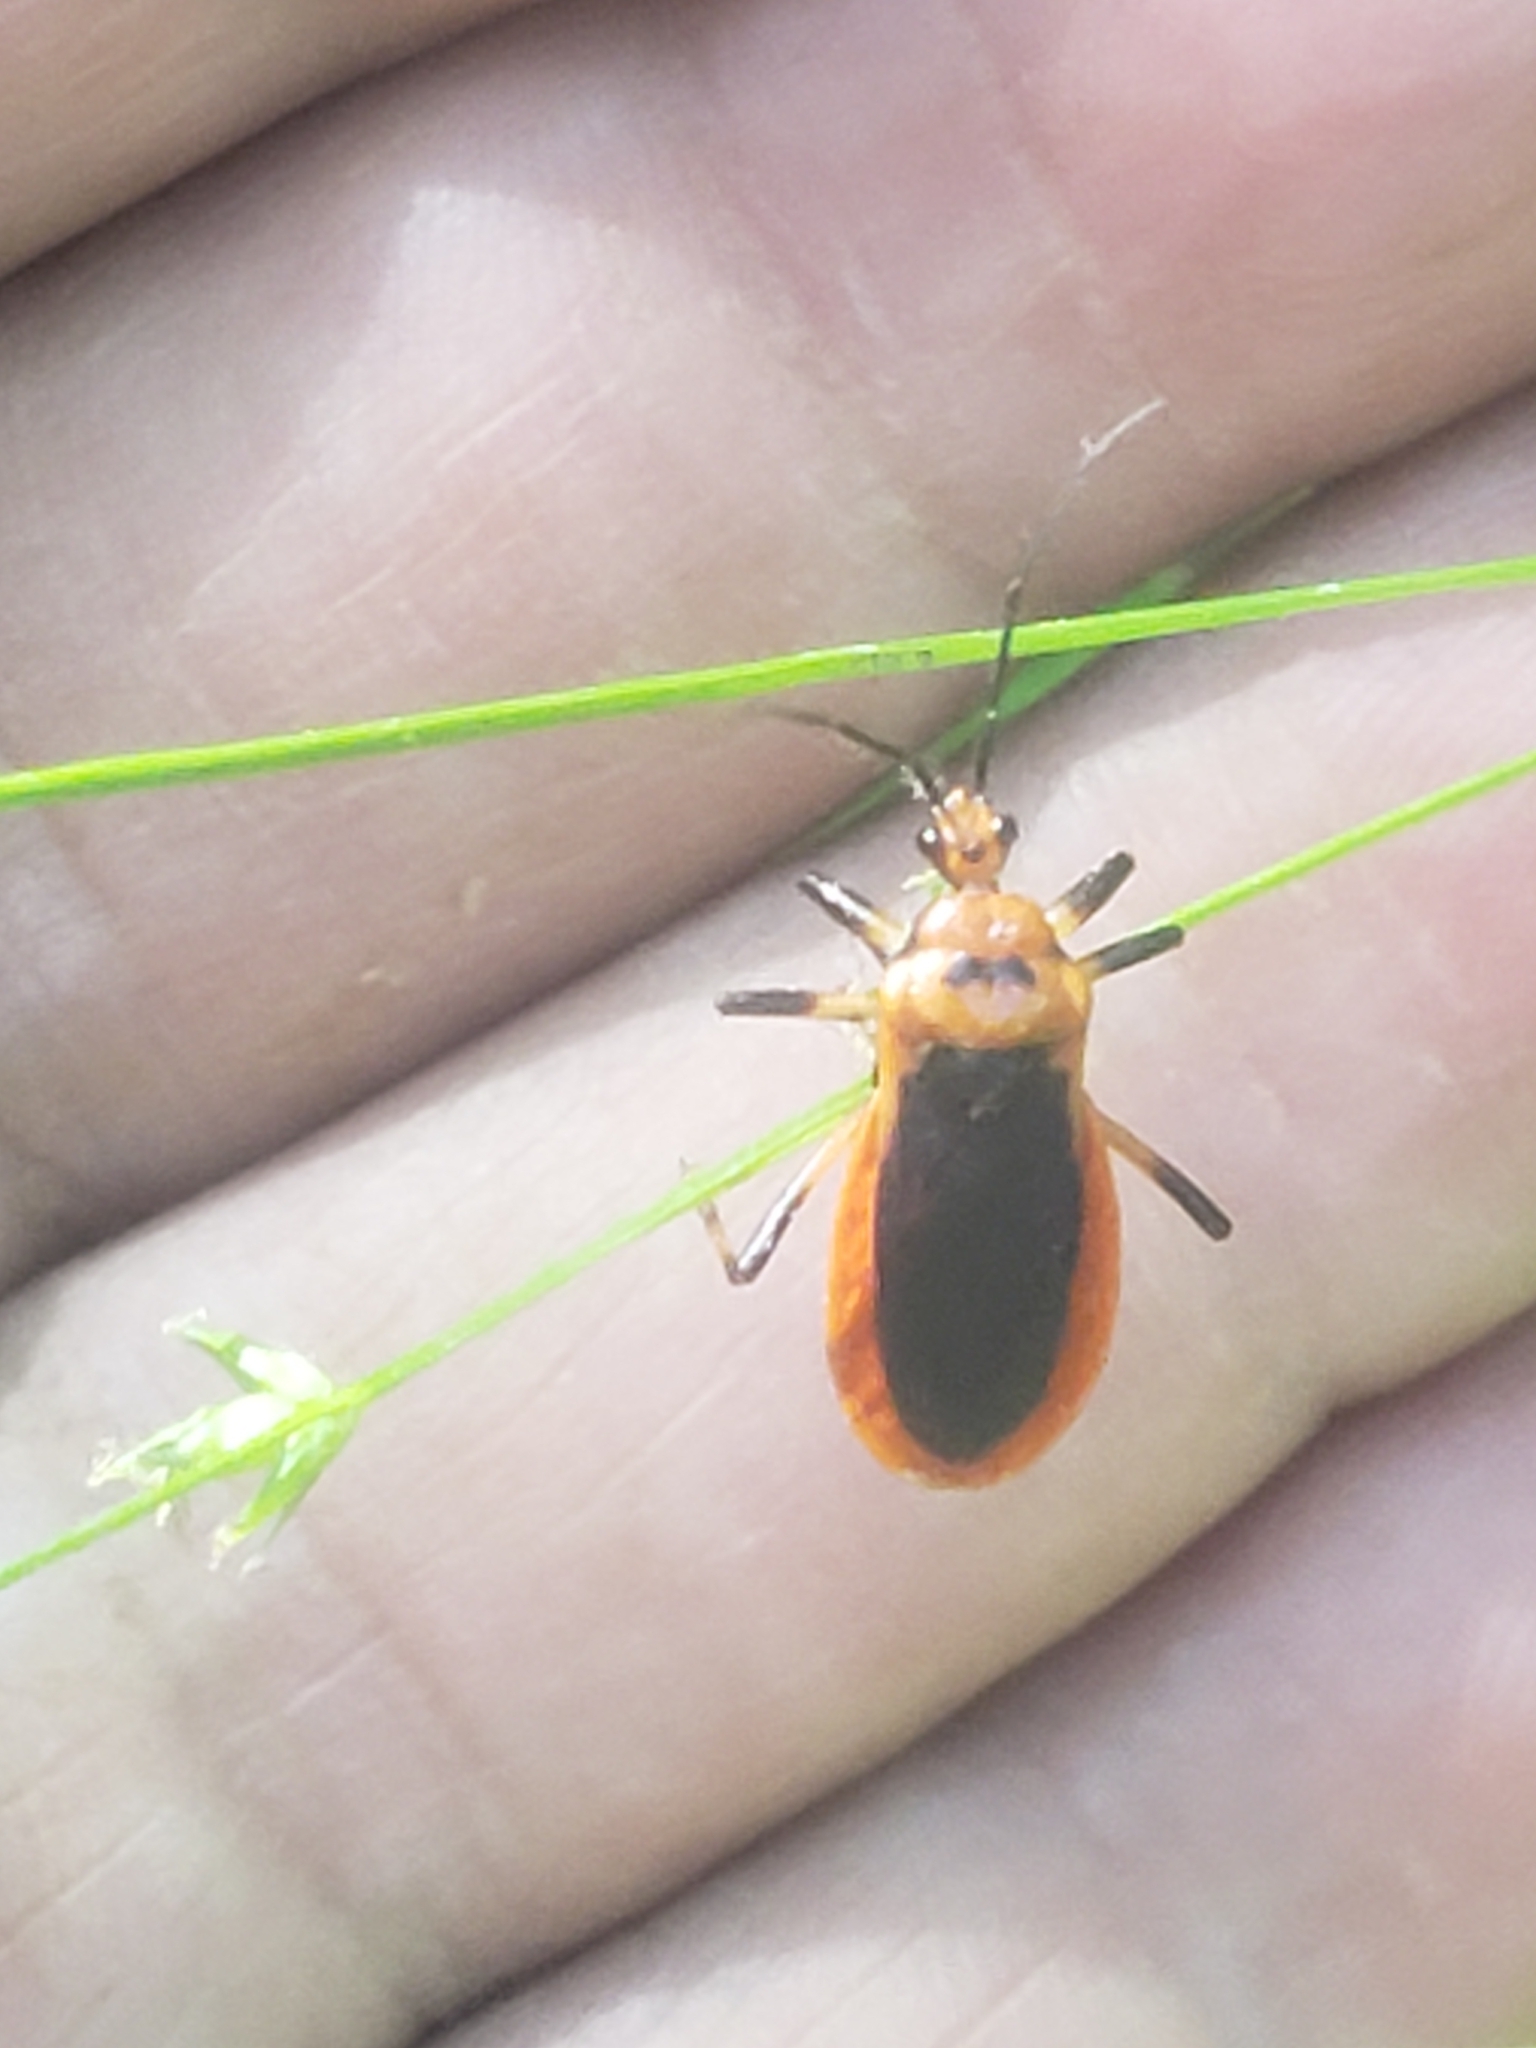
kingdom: Animalia
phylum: Arthropoda
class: Insecta
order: Hemiptera
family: Reduviidae
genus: Rhiginia
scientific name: Rhiginia cruciata
